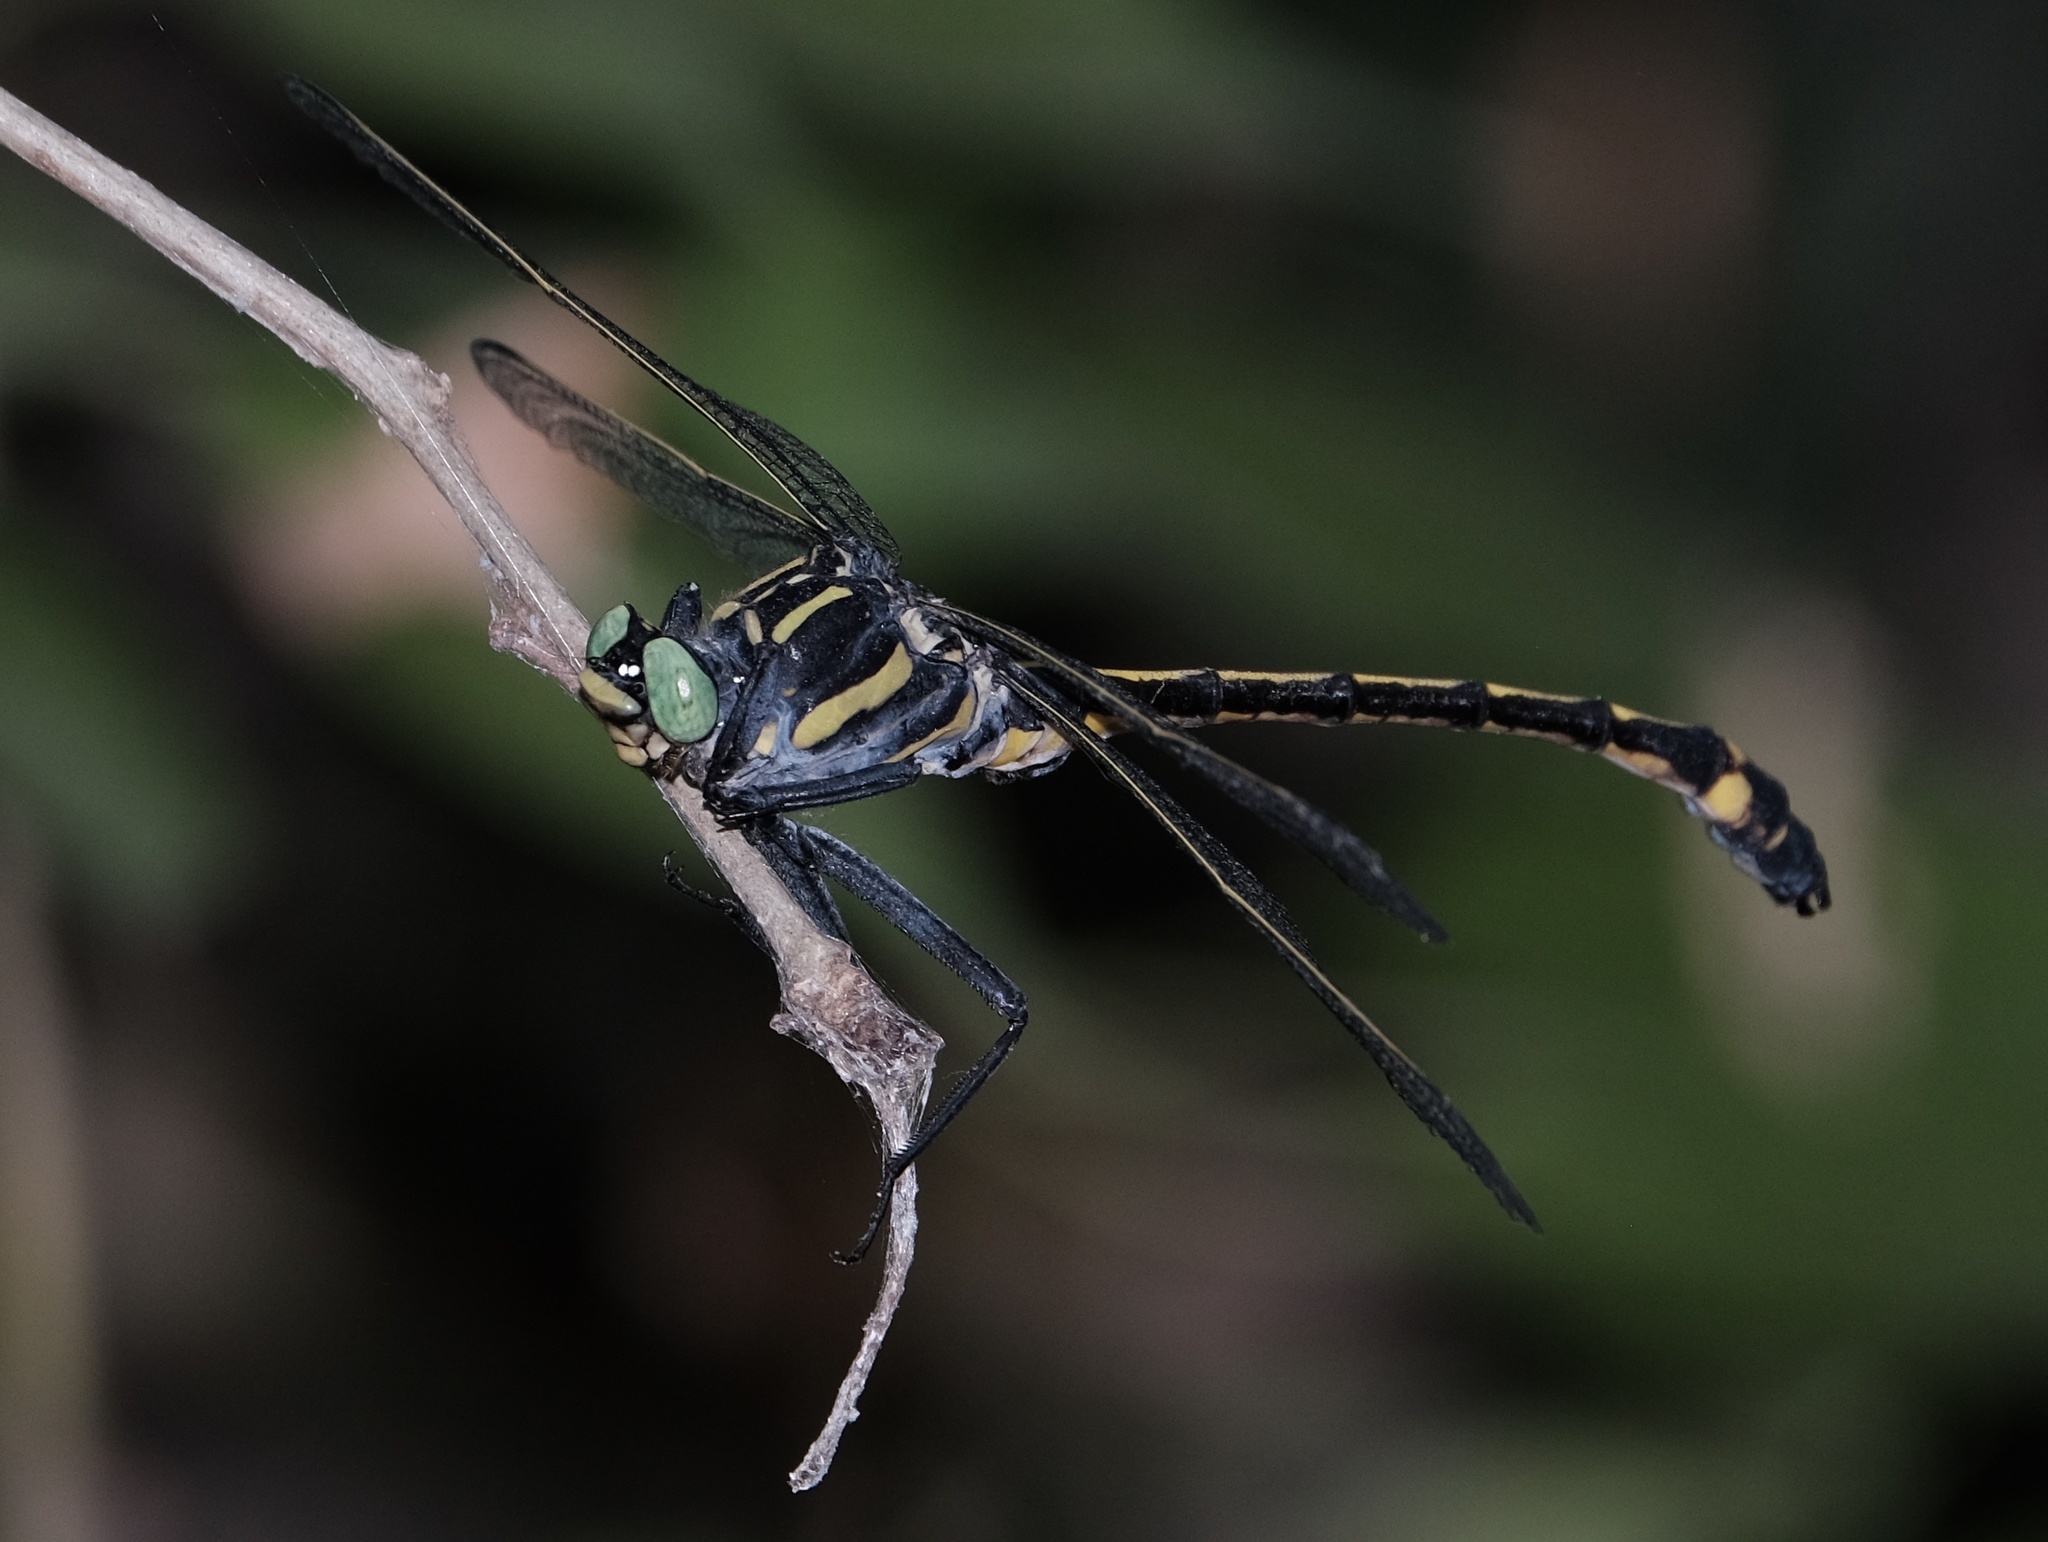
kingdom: Animalia
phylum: Arthropoda
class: Insecta
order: Odonata
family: Gomphidae
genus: Hagenius
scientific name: Hagenius brevistylus
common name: Dragonhunter
